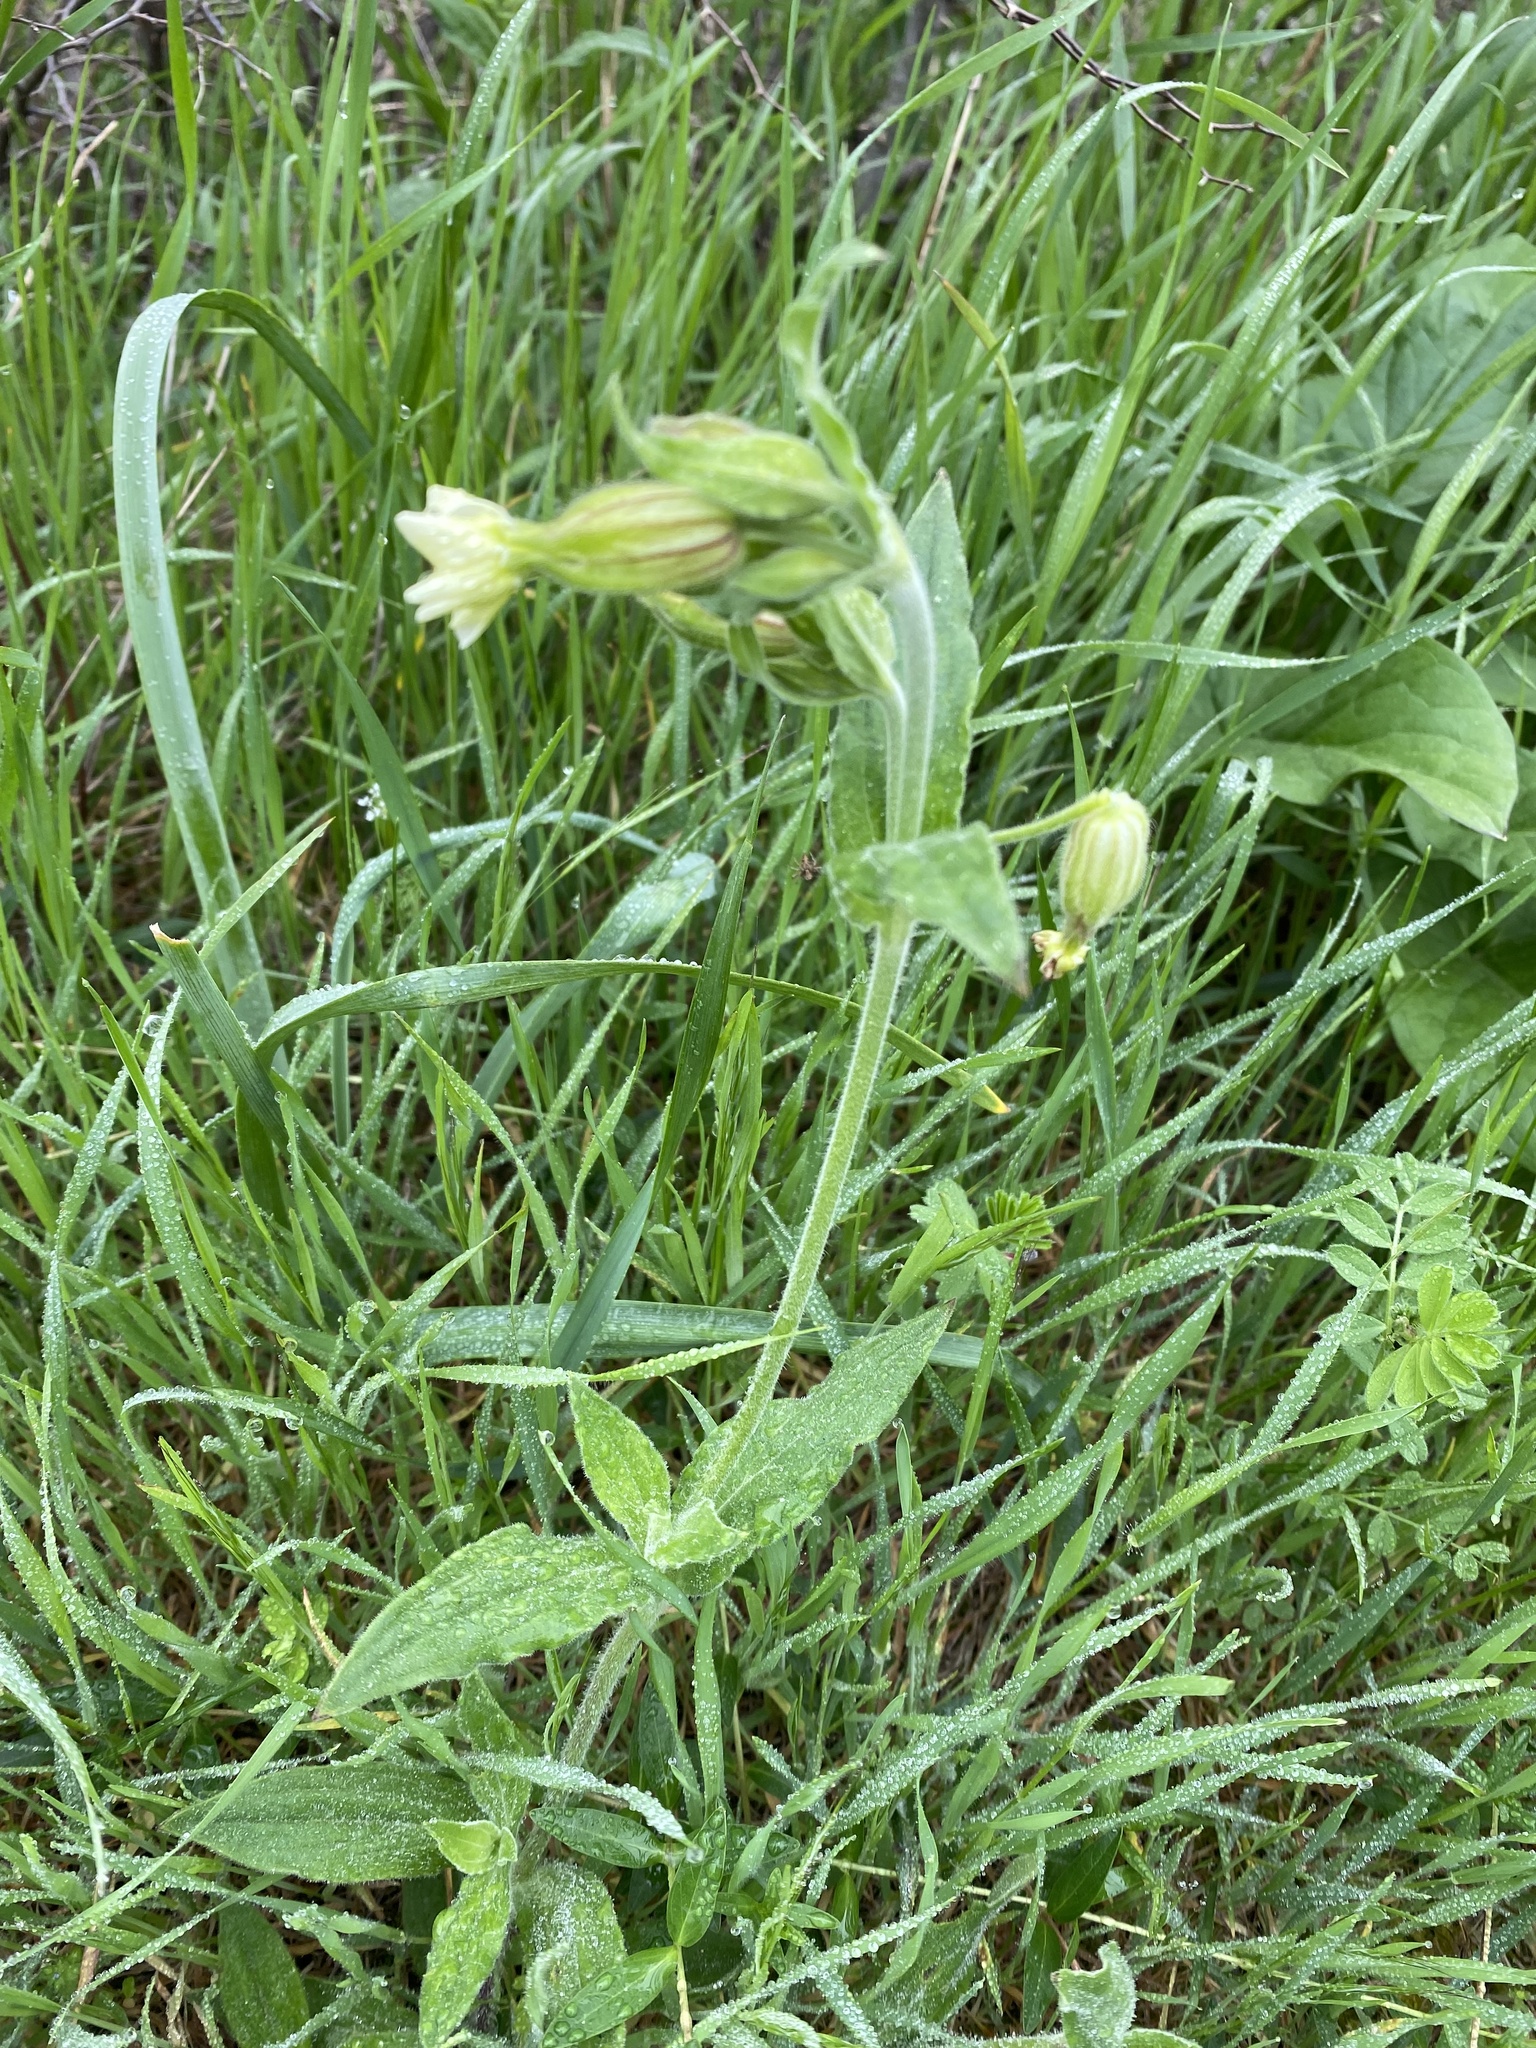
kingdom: Plantae
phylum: Tracheophyta
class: Magnoliopsida
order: Caryophyllales
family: Caryophyllaceae
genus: Silene
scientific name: Silene latifolia
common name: White campion
